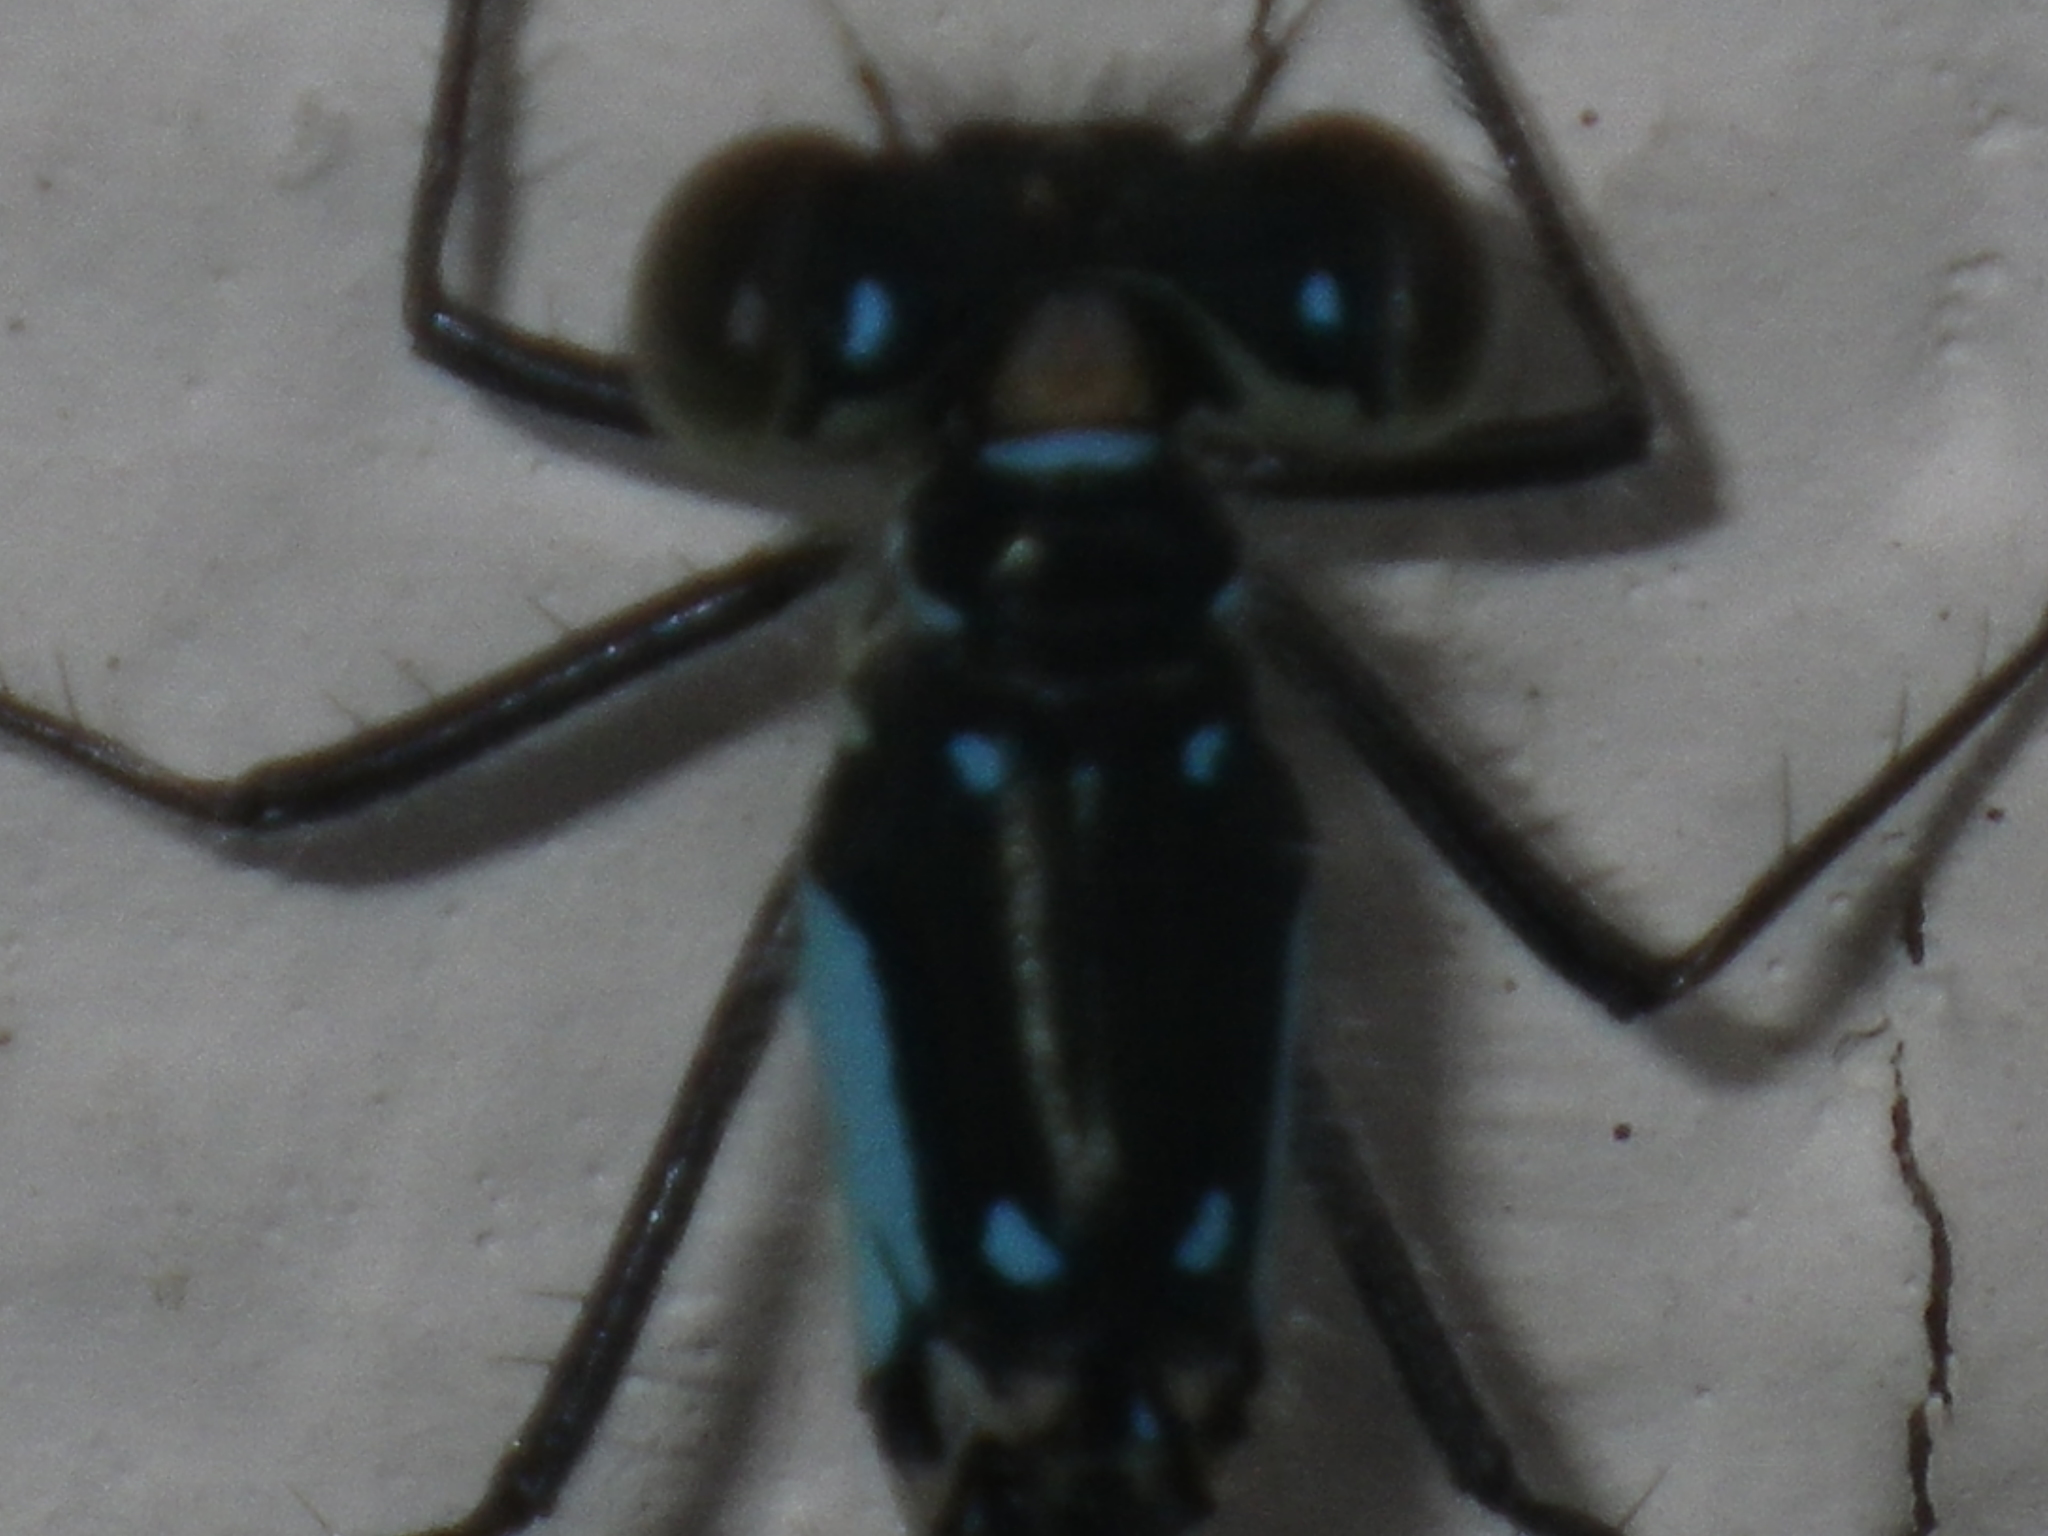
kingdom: Animalia
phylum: Arthropoda
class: Insecta
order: Odonata
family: Coenagrionidae
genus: Ischnura
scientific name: Ischnura cervula
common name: Pacific forktail
